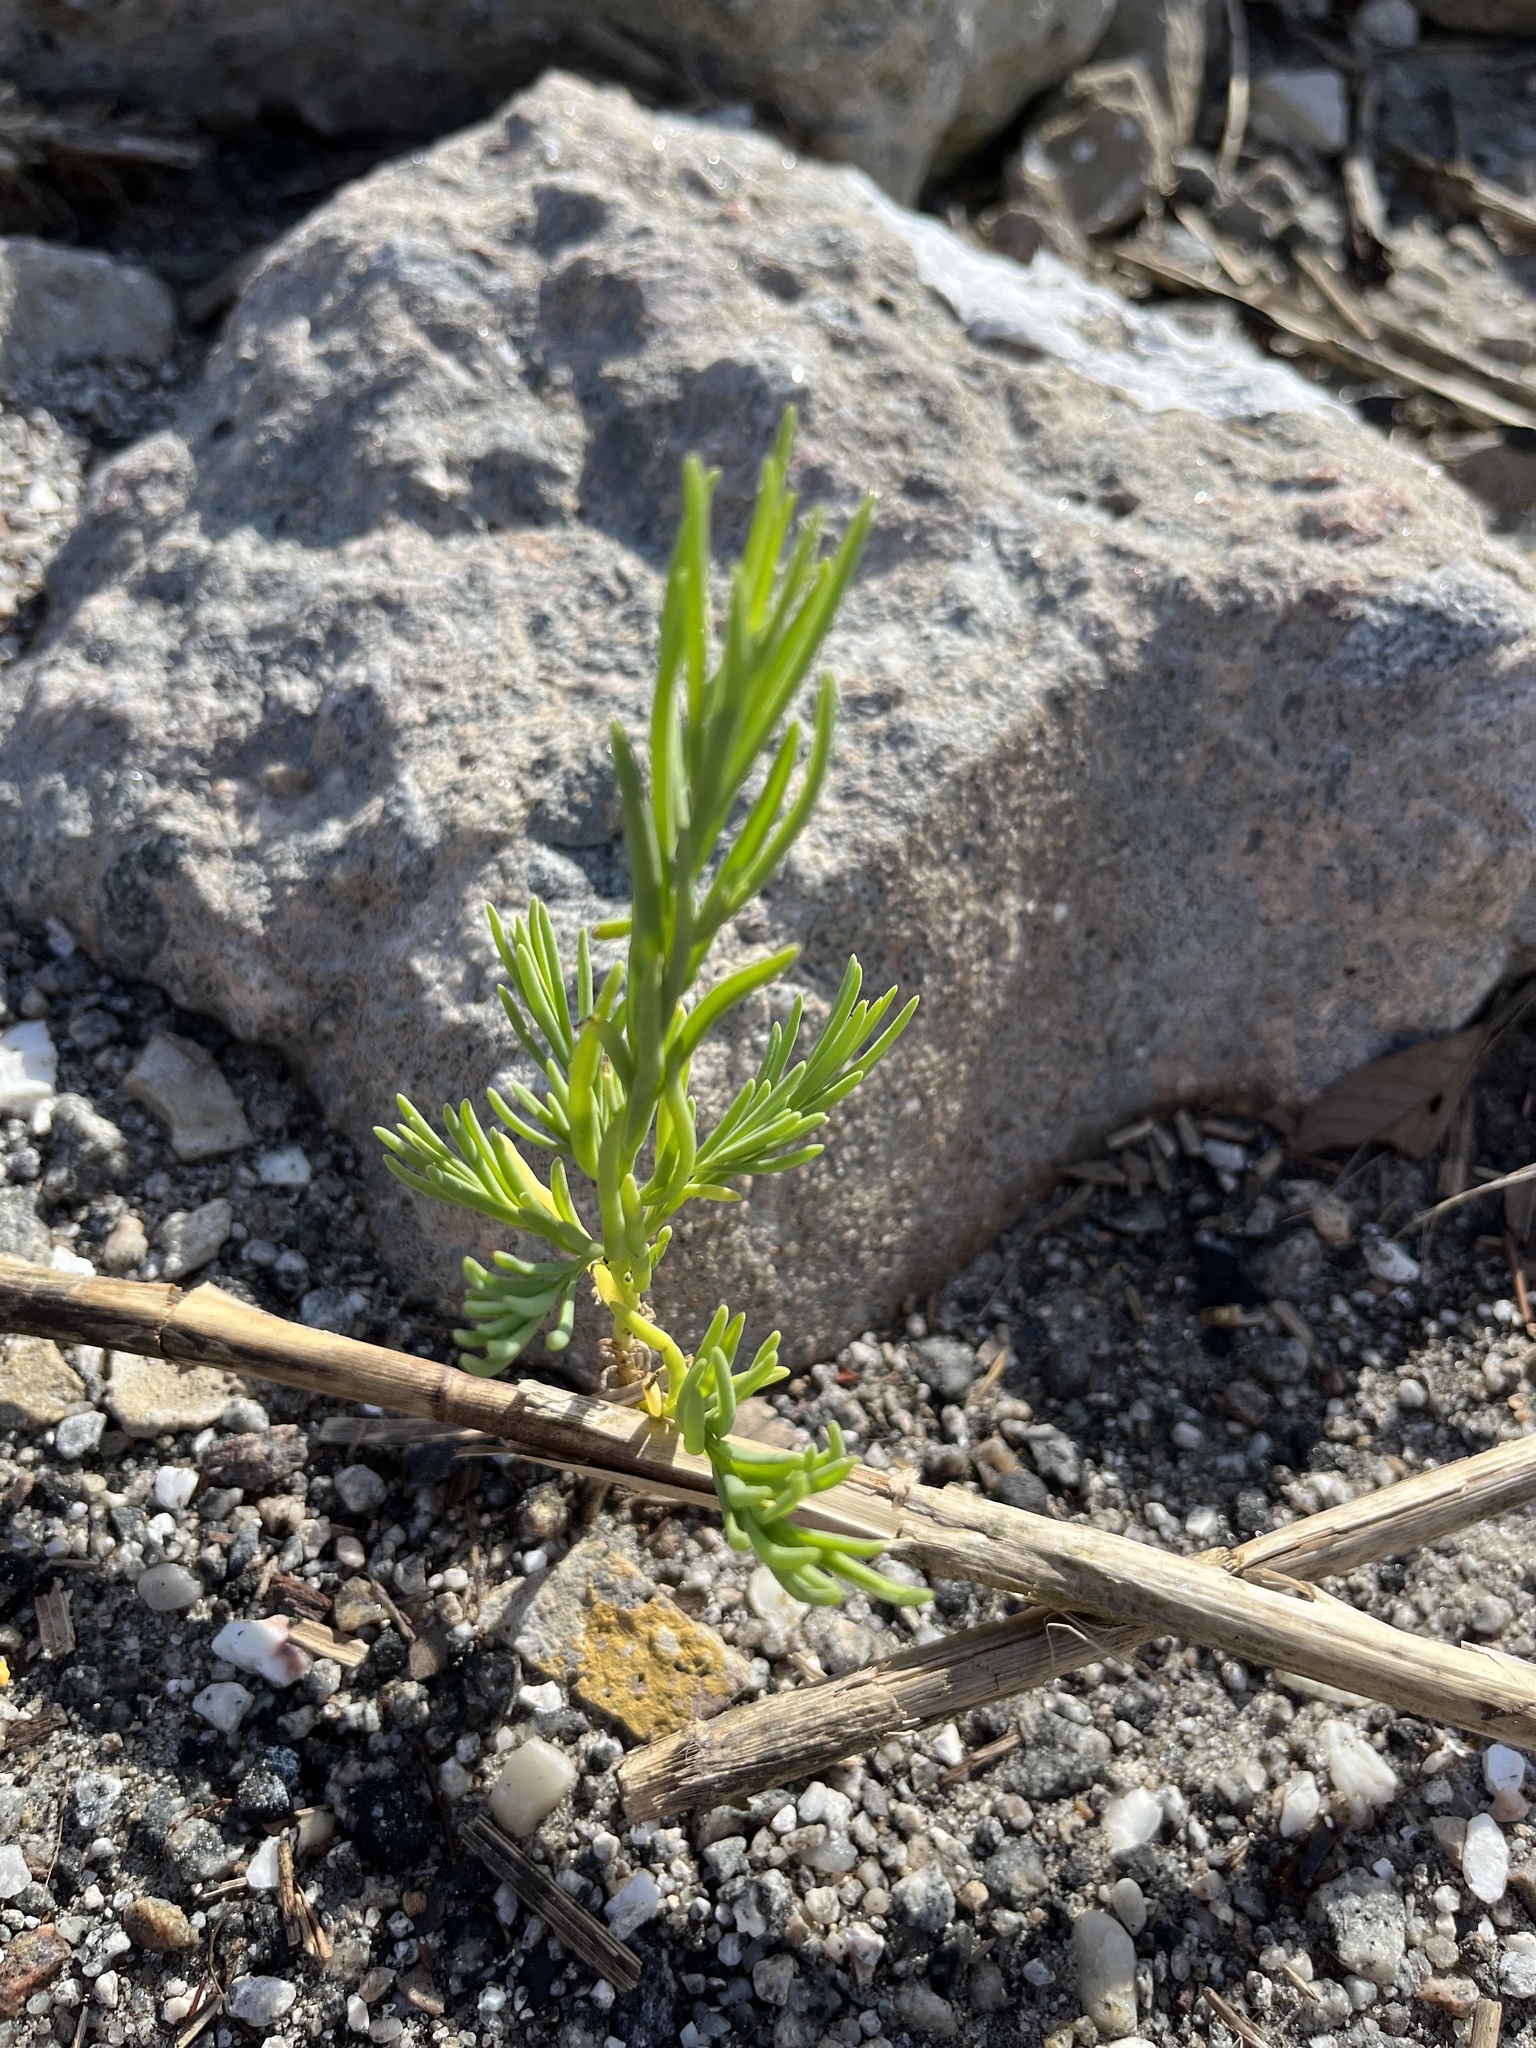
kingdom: Plantae
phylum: Tracheophyta
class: Magnoliopsida
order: Brassicales
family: Bataceae
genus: Batis
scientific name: Batis maritima
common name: Turtleweed
